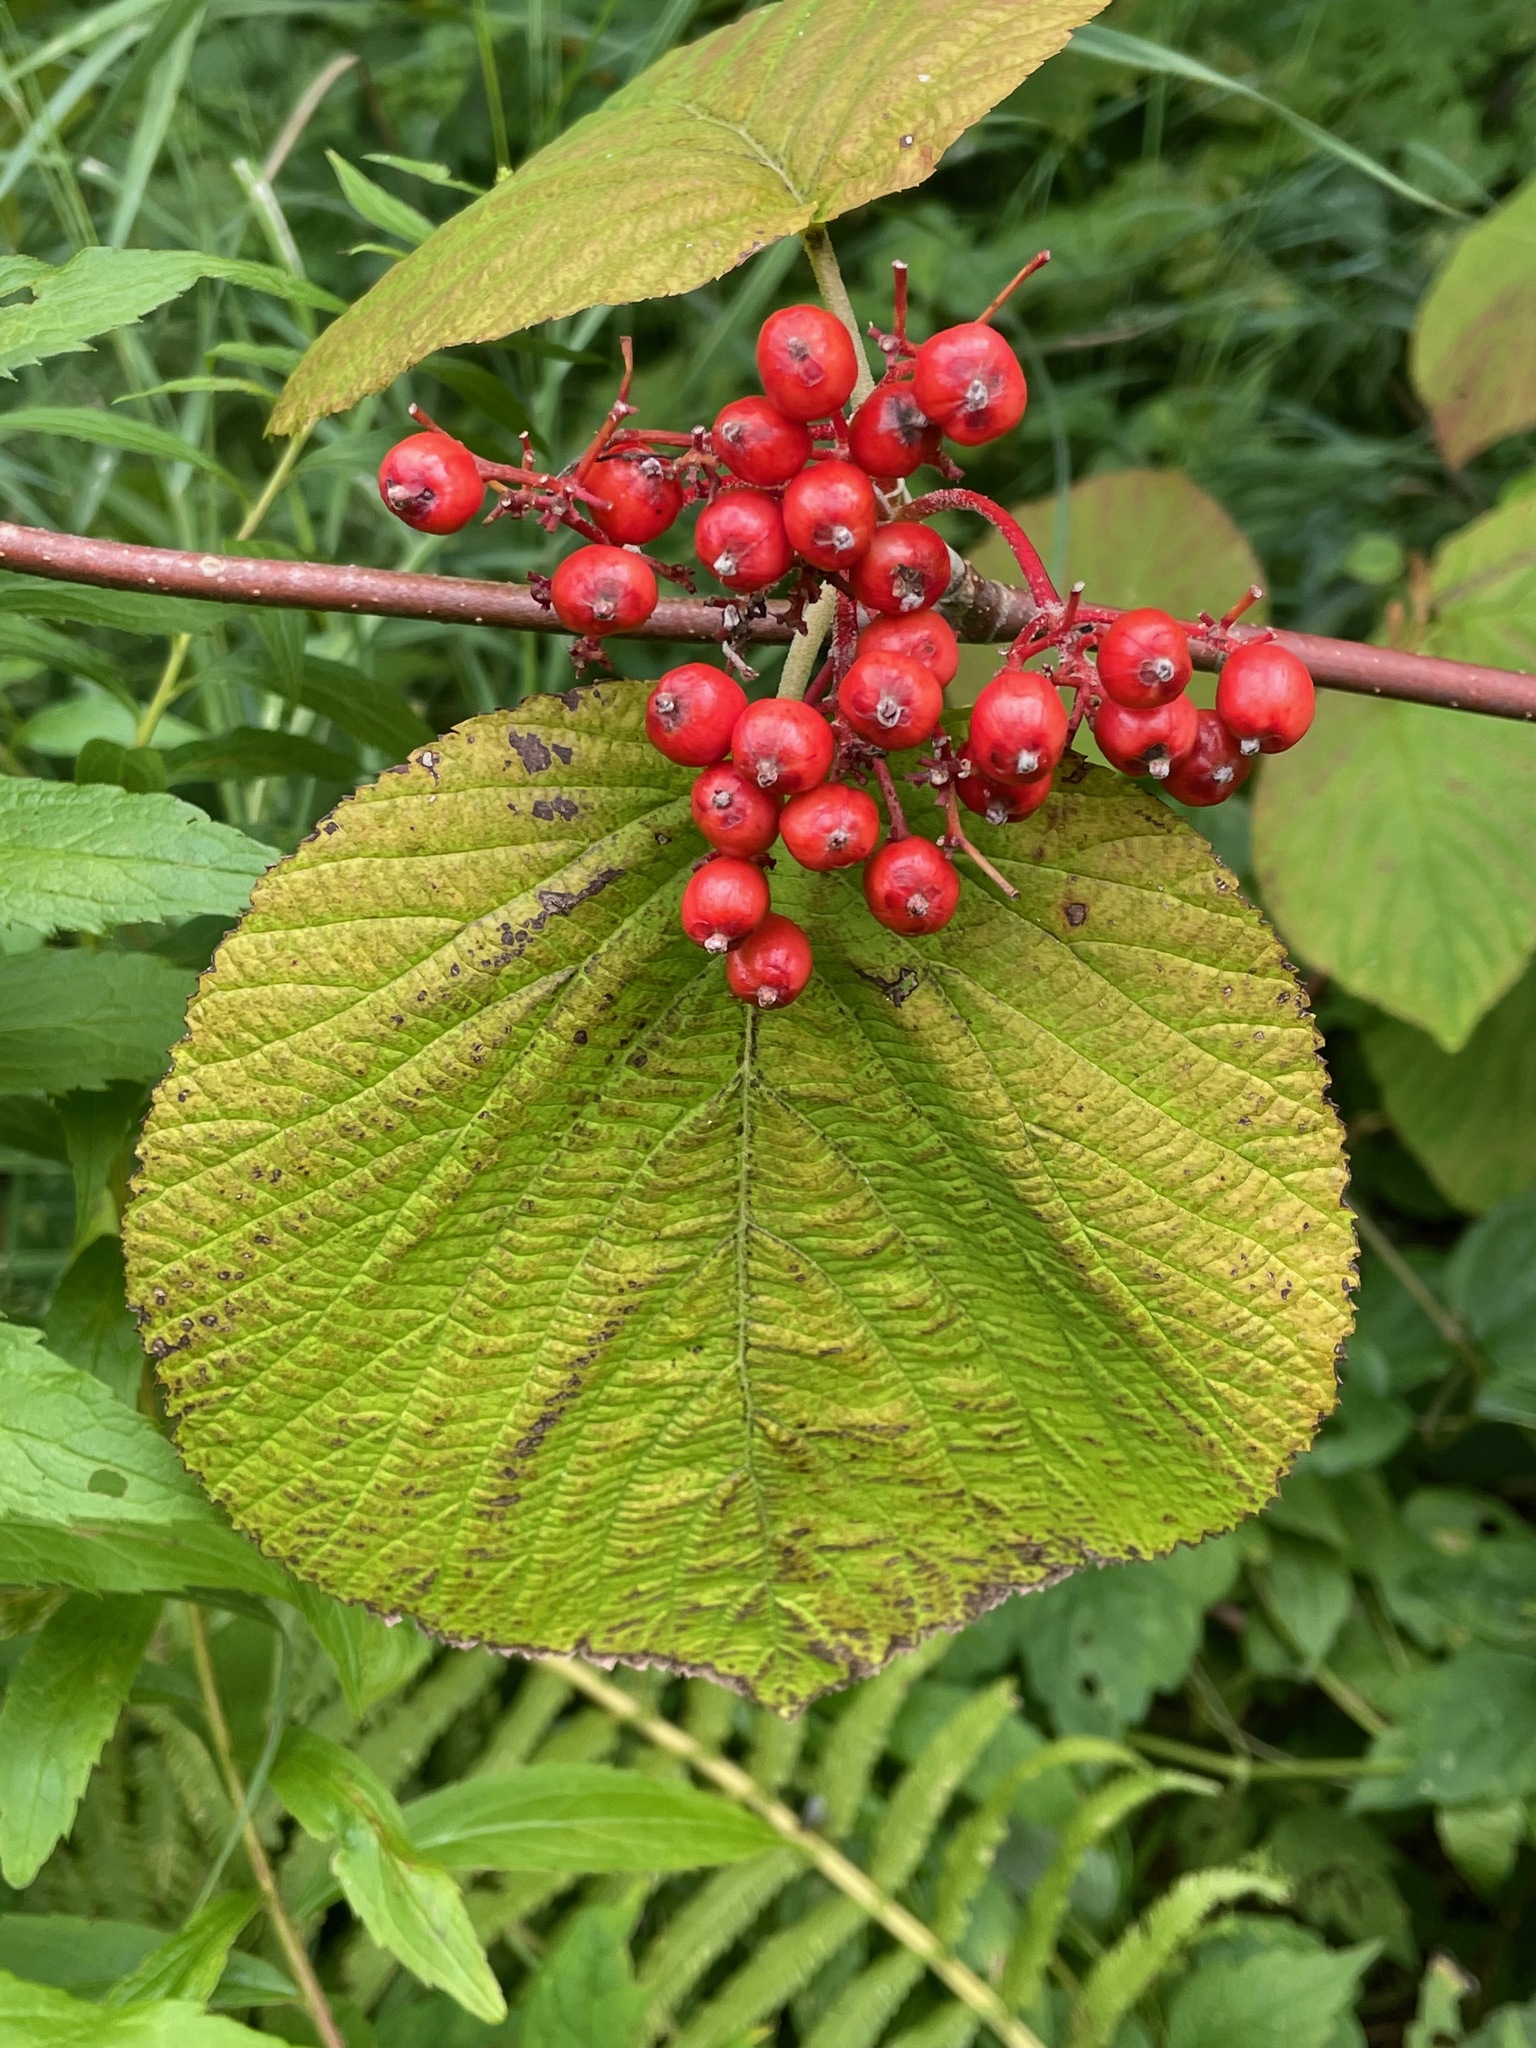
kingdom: Plantae
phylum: Tracheophyta
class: Magnoliopsida
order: Dipsacales
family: Viburnaceae
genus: Viburnum
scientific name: Viburnum lantanoides
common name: Hobblebush
